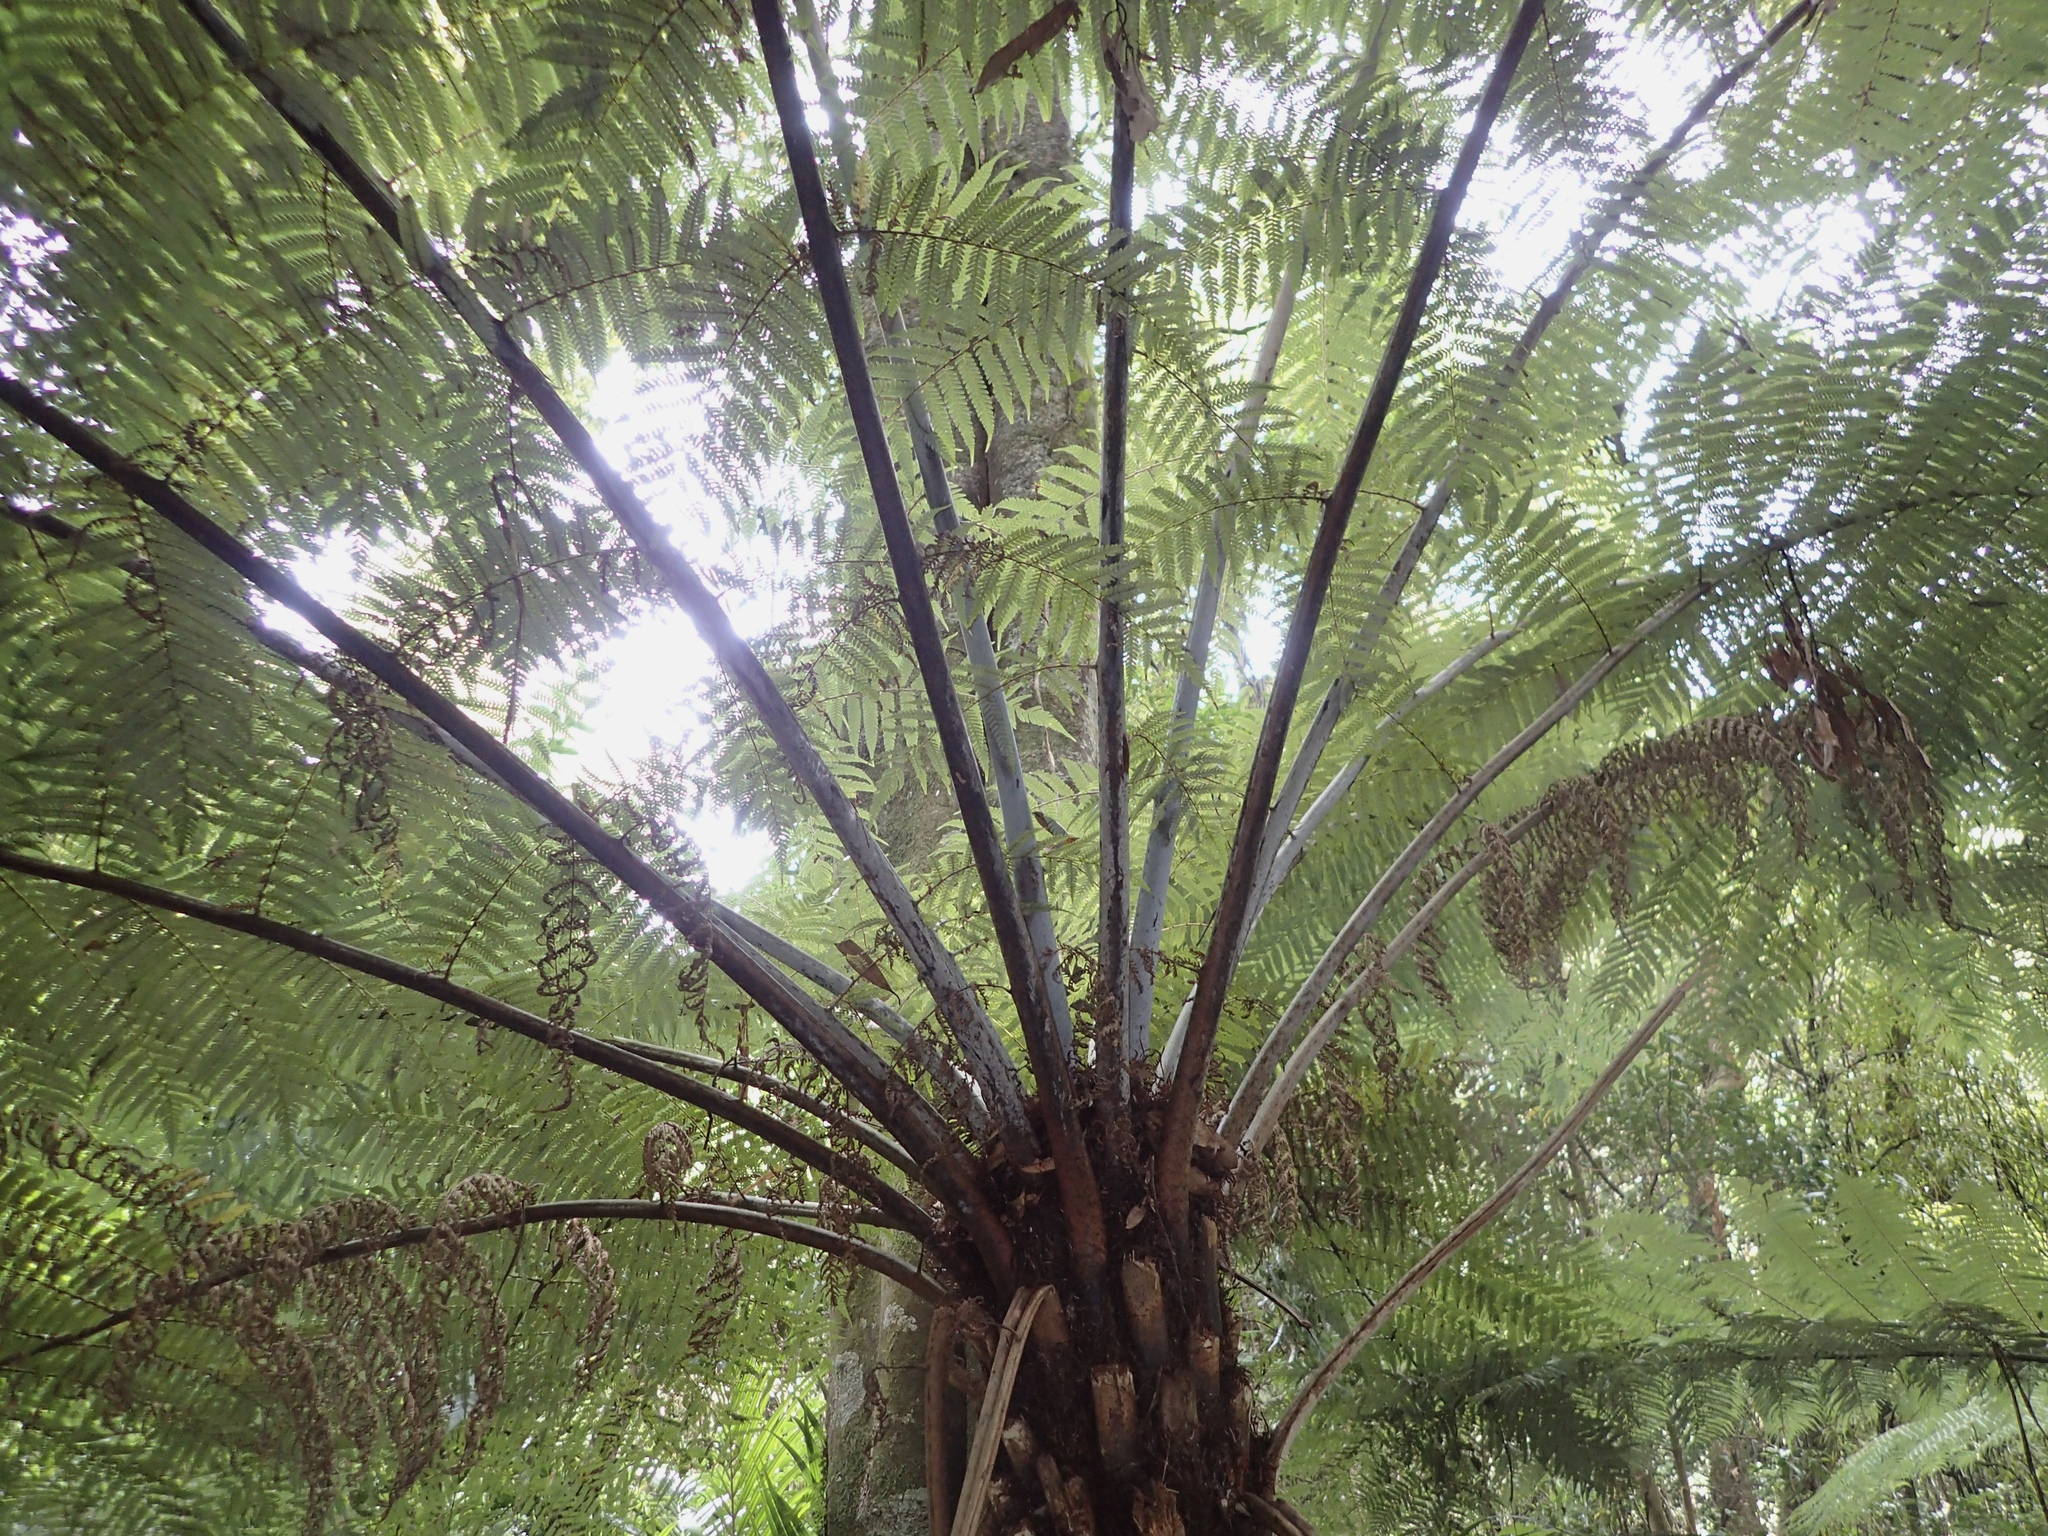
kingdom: Plantae
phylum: Tracheophyta
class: Polypodiopsida
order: Cyatheales
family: Cyatheaceae
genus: Alsophila
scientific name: Alsophila dealbata
